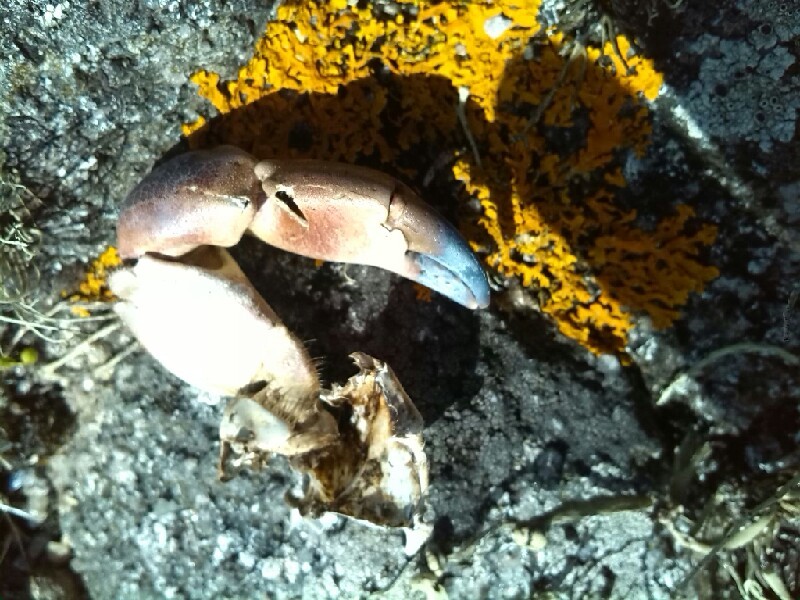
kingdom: Animalia
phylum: Arthropoda
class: Malacostraca
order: Decapoda
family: Cancridae
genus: Cancer
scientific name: Cancer pagurus
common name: Edible crab
